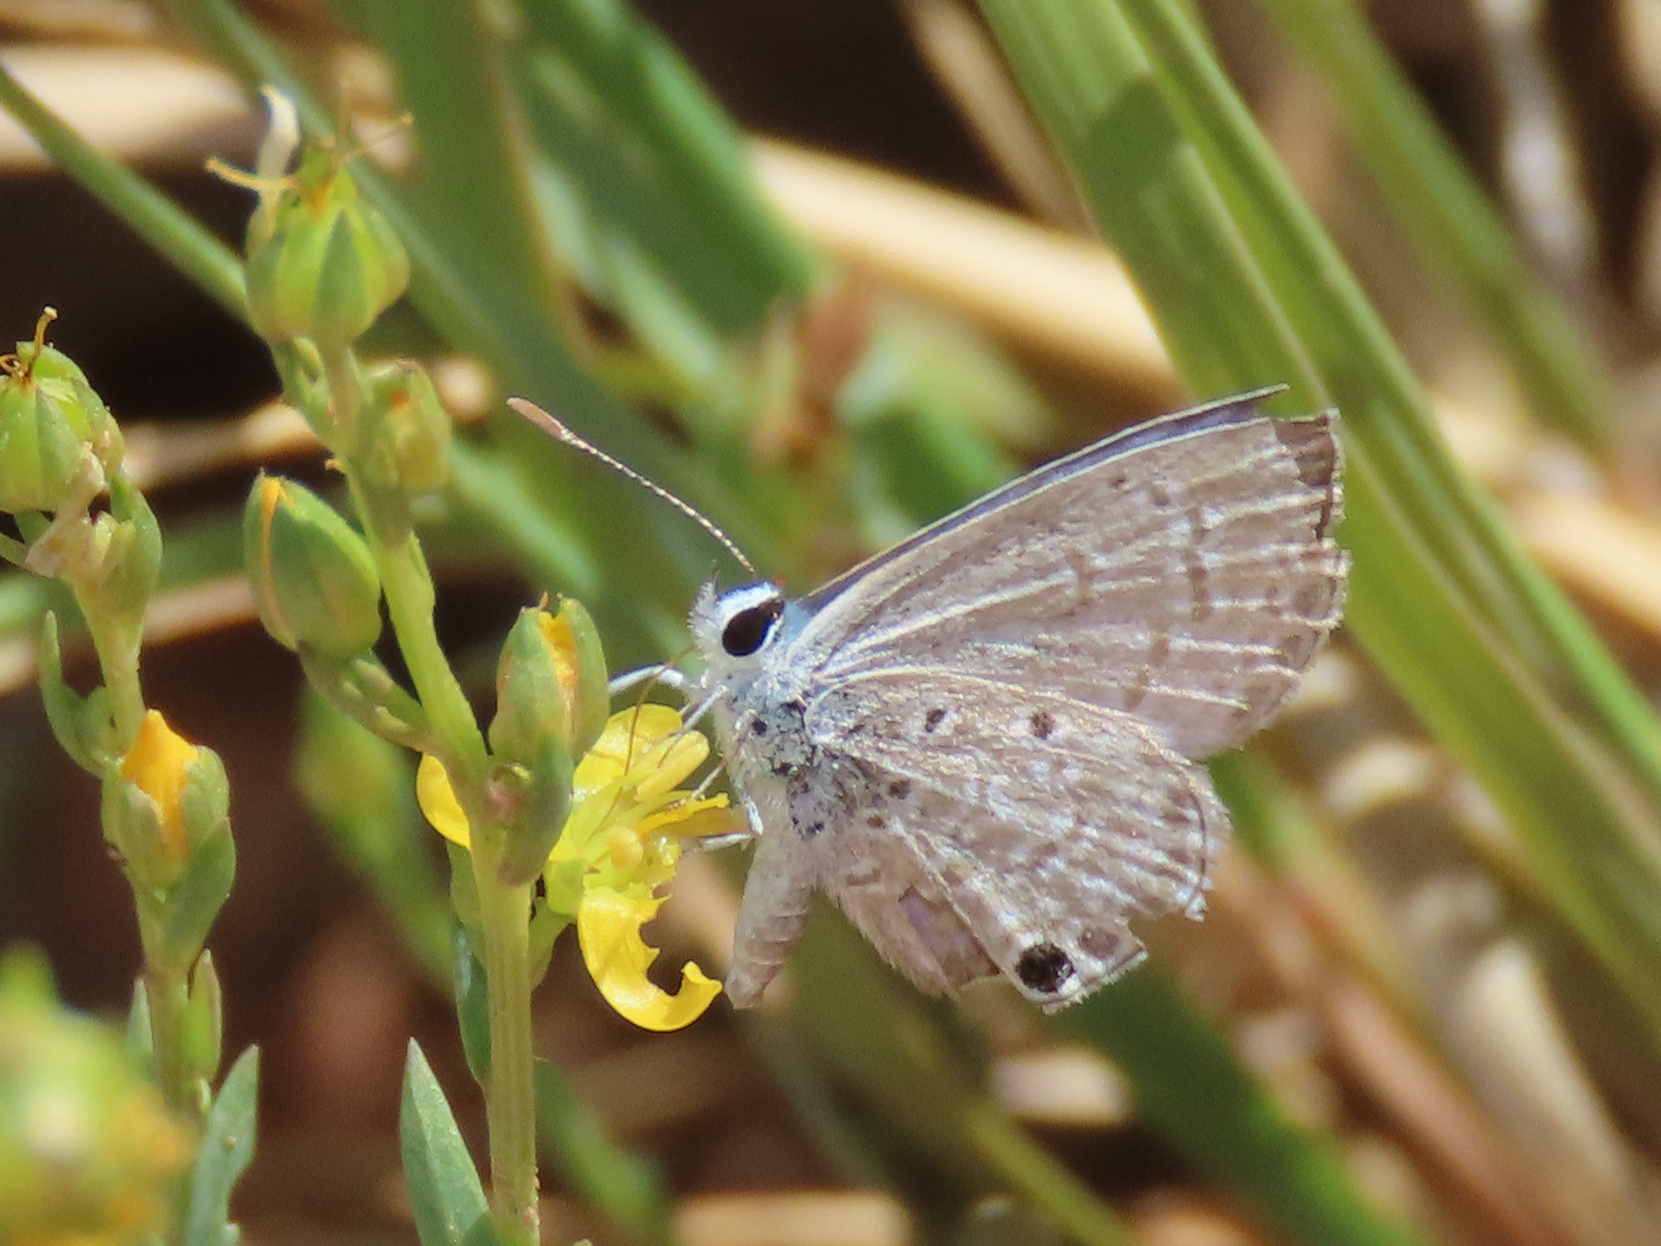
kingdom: Animalia
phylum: Arthropoda
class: Insecta
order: Lepidoptera
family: Lycaenidae
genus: Hemiargus
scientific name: Hemiargus ceraunus
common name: Ceraunus blue
